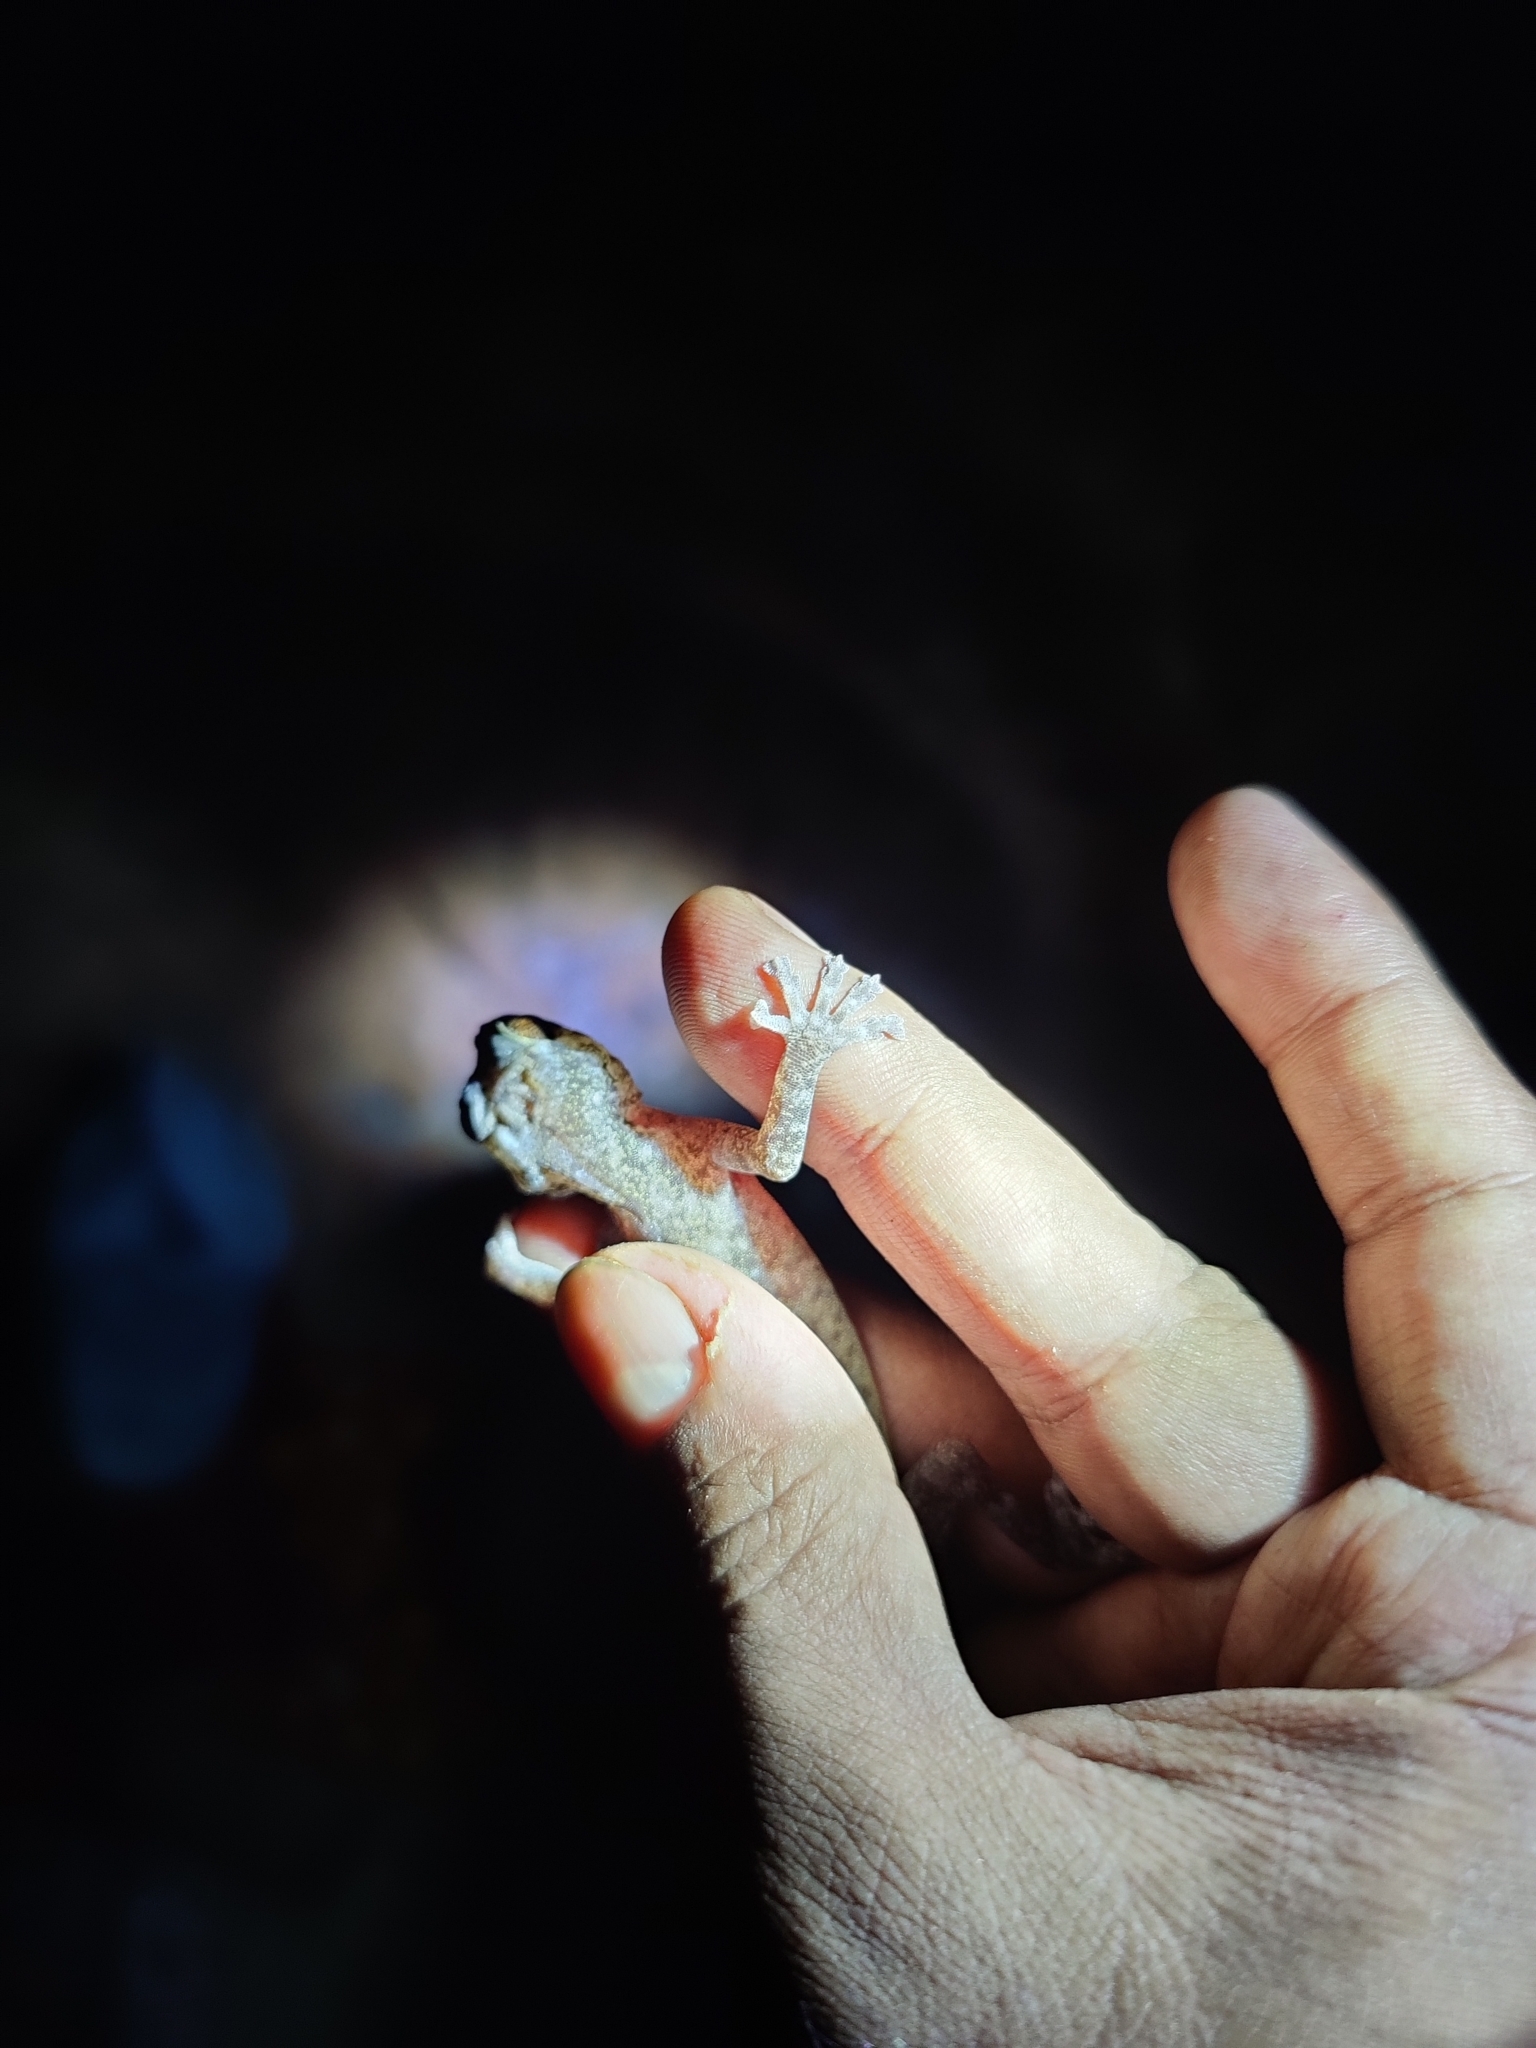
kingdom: Animalia
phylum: Chordata
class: Squamata
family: Gekkonidae
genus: Calodactylodes
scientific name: Calodactylodes aureus
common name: Indian golden gecko
